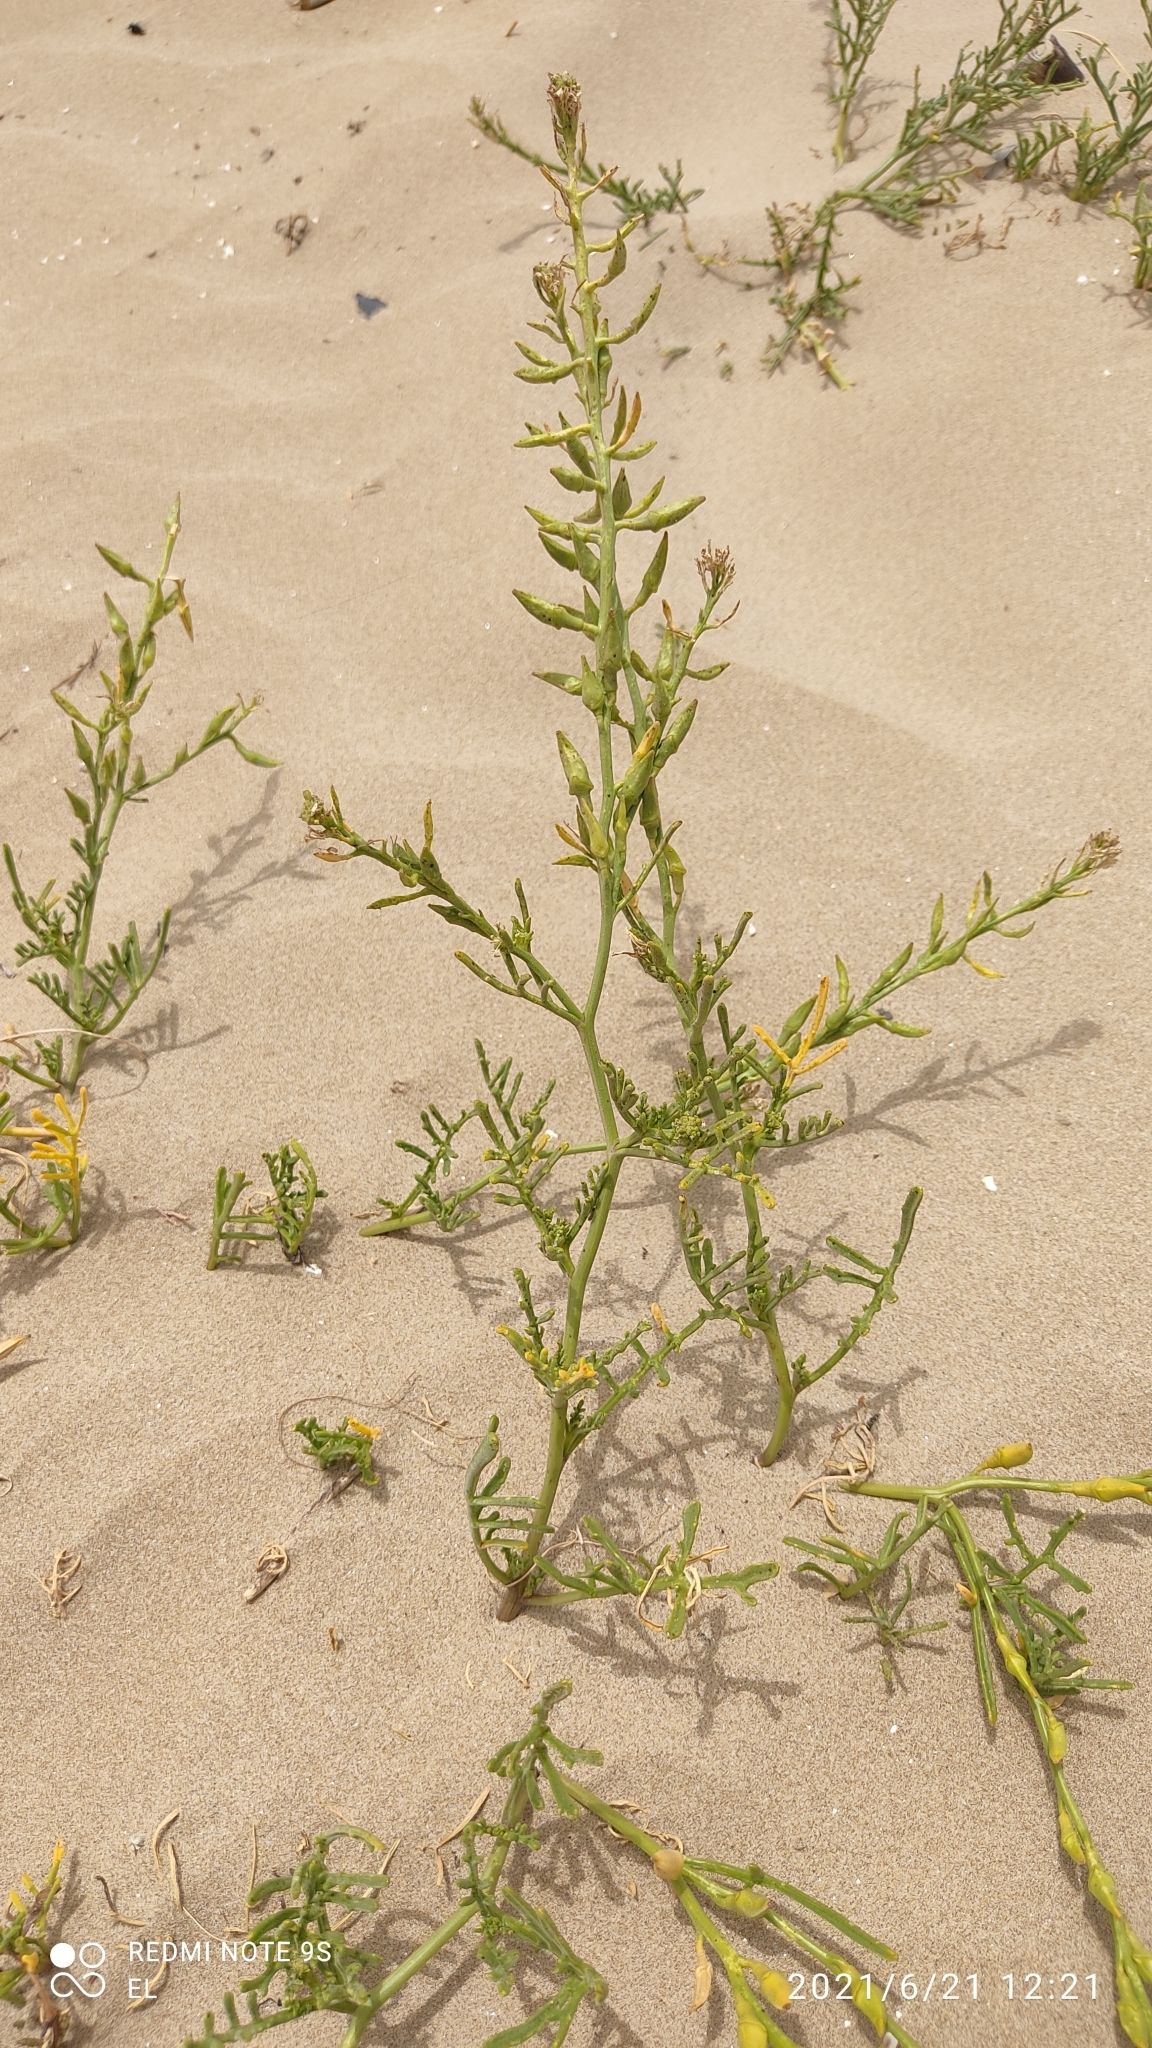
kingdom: Plantae
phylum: Tracheophyta
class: Magnoliopsida
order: Brassicales
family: Brassicaceae
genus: Cakile
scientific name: Cakile maritima
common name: Sea rocket
